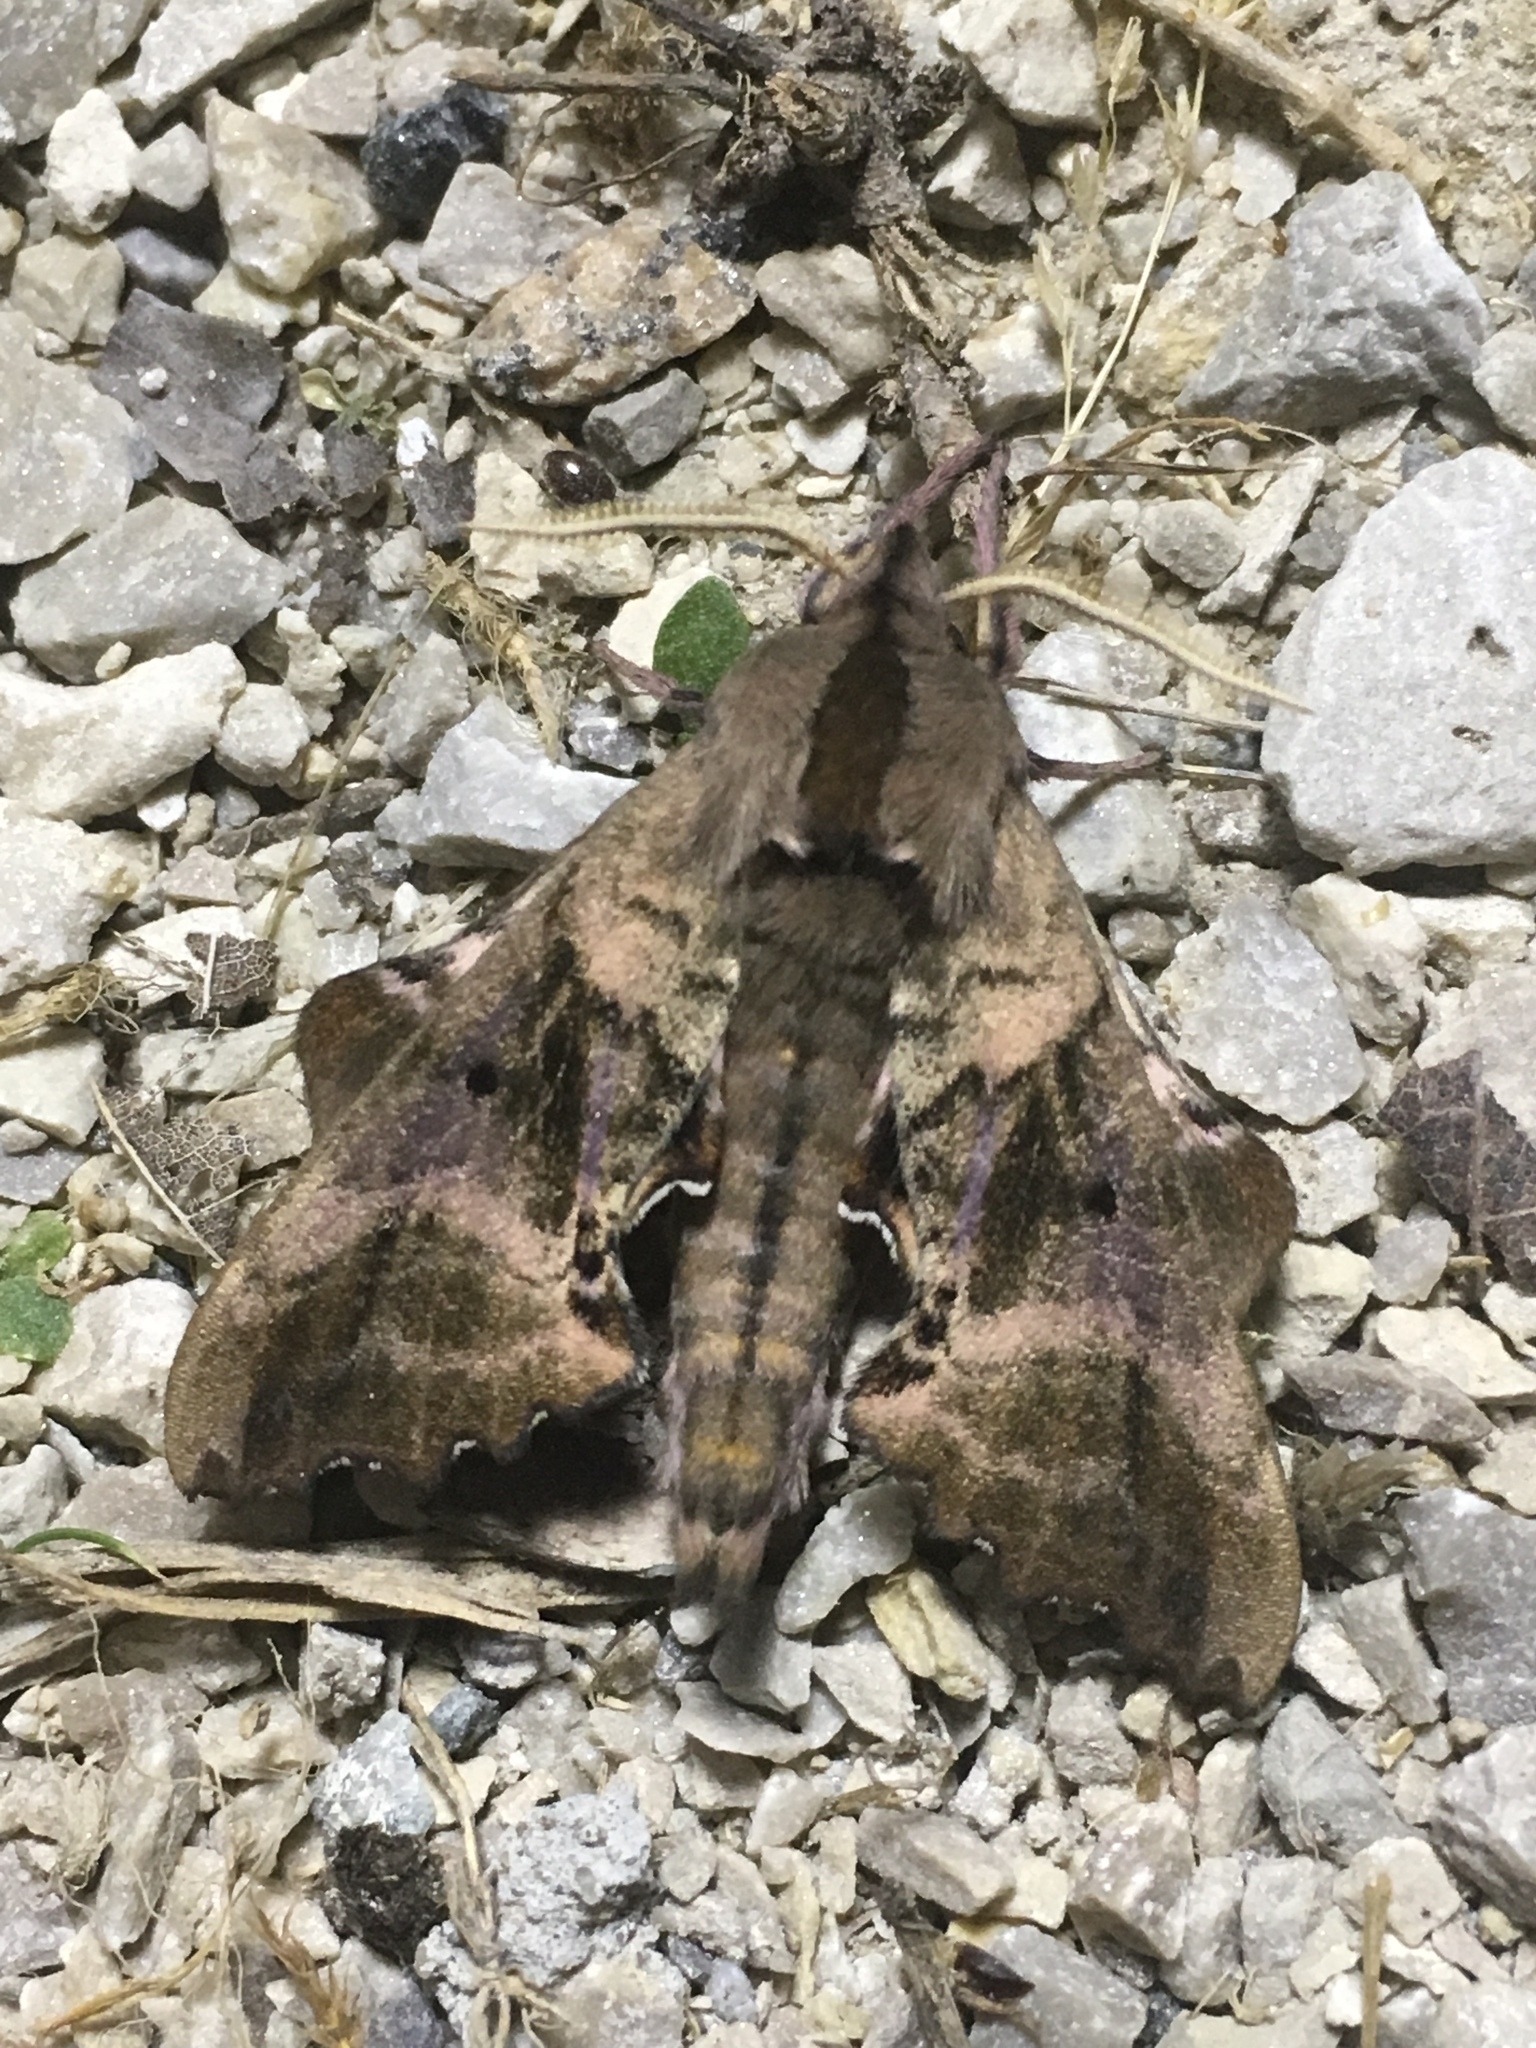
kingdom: Animalia
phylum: Arthropoda
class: Insecta
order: Lepidoptera
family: Sphingidae
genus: Paonias
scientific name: Paonias excaecata
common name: Blind-eyed sphinx
